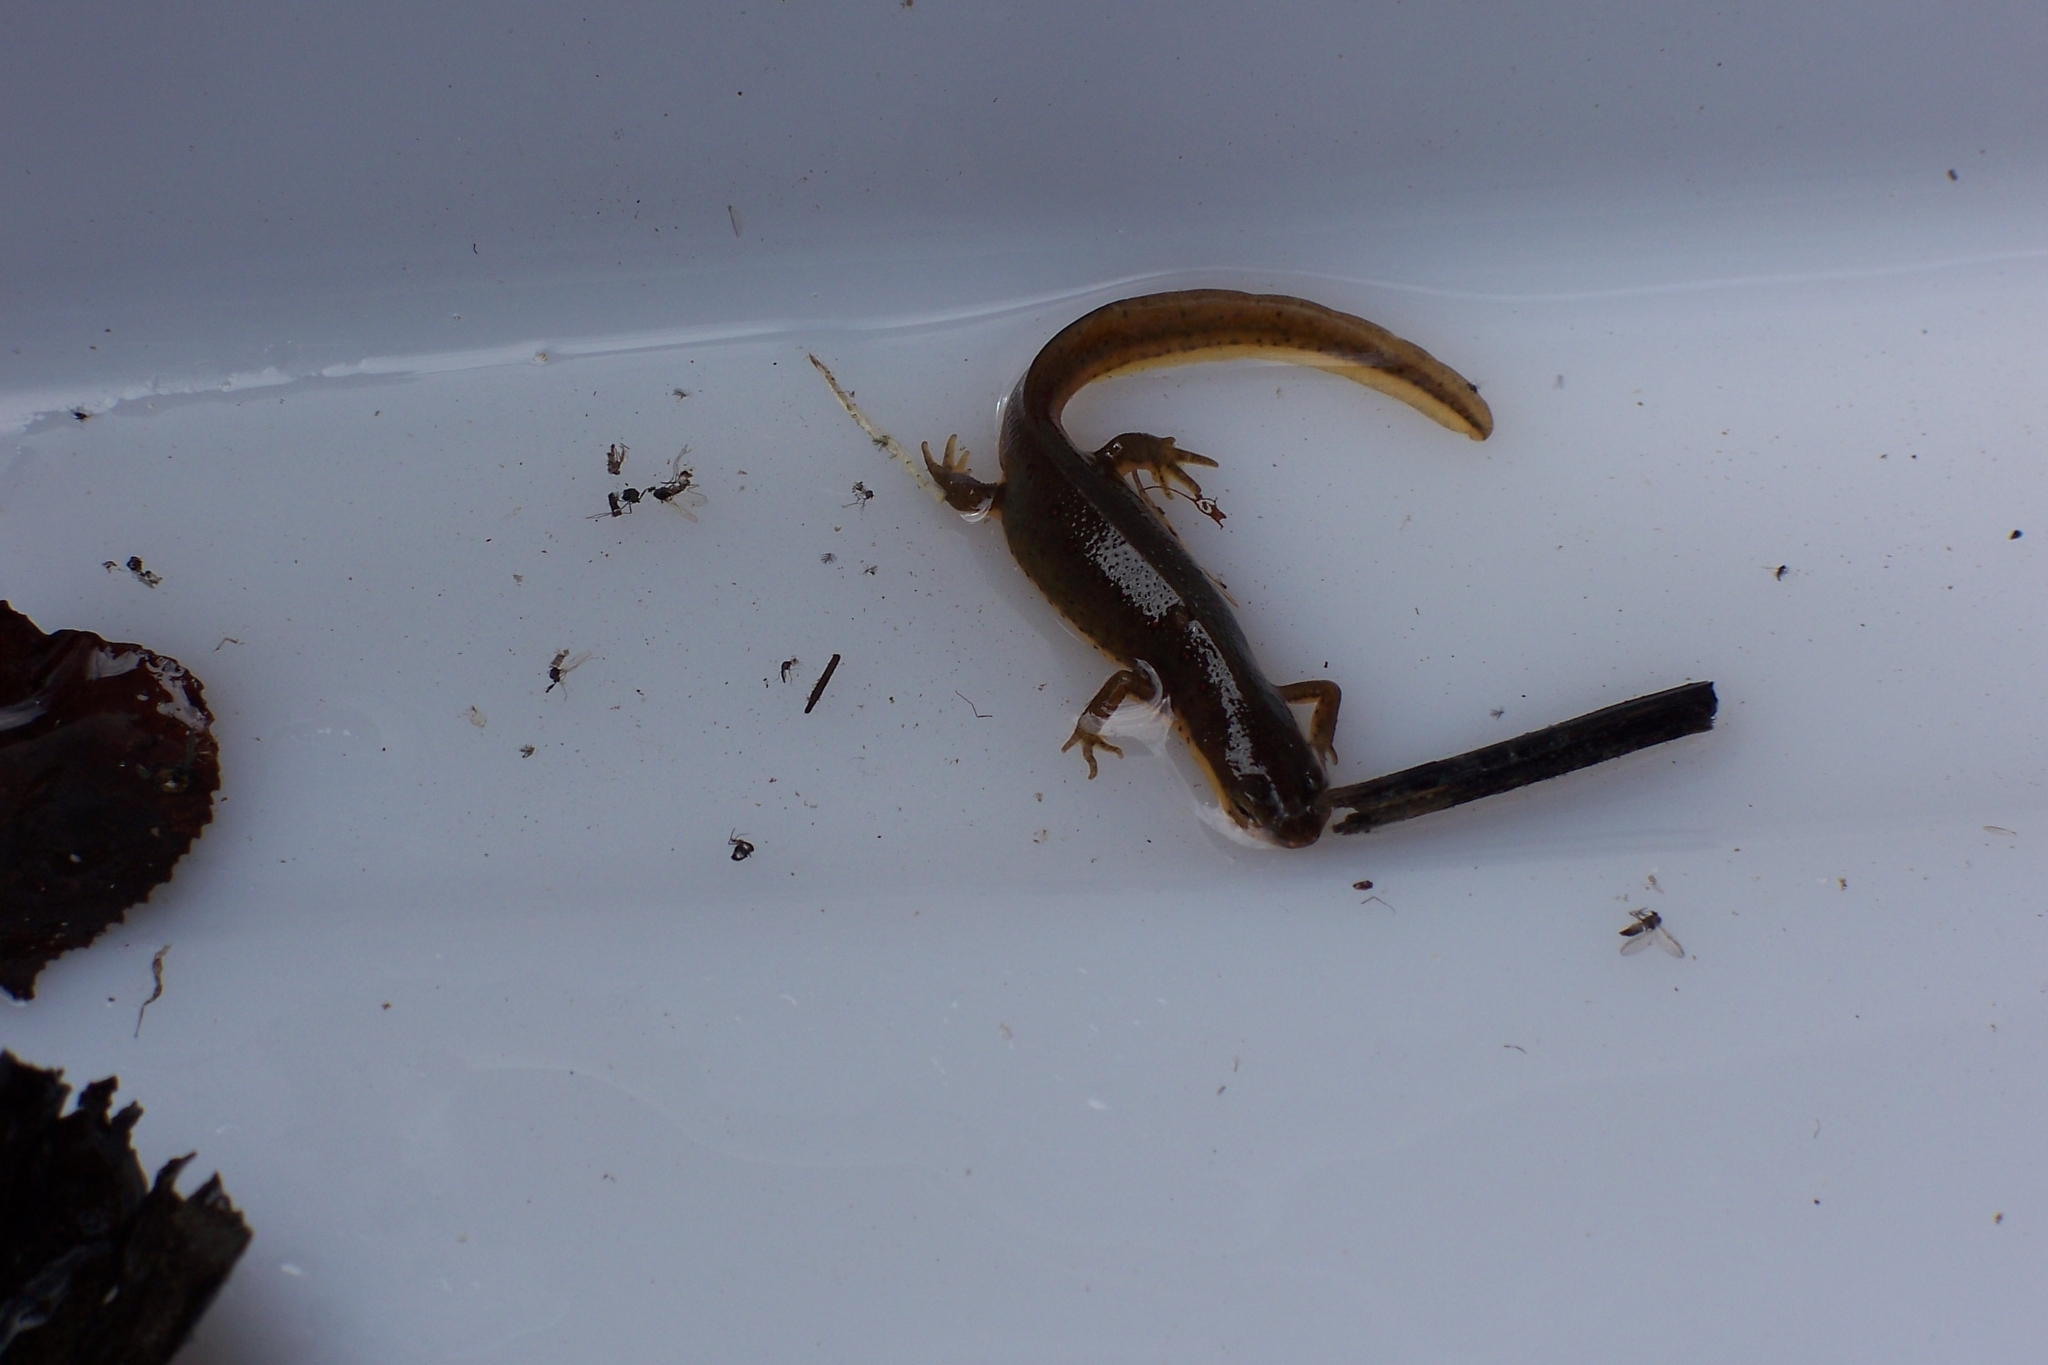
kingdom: Animalia
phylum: Chordata
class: Amphibia
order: Caudata
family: Salamandridae
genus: Notophthalmus
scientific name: Notophthalmus viridescens
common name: Eastern newt
